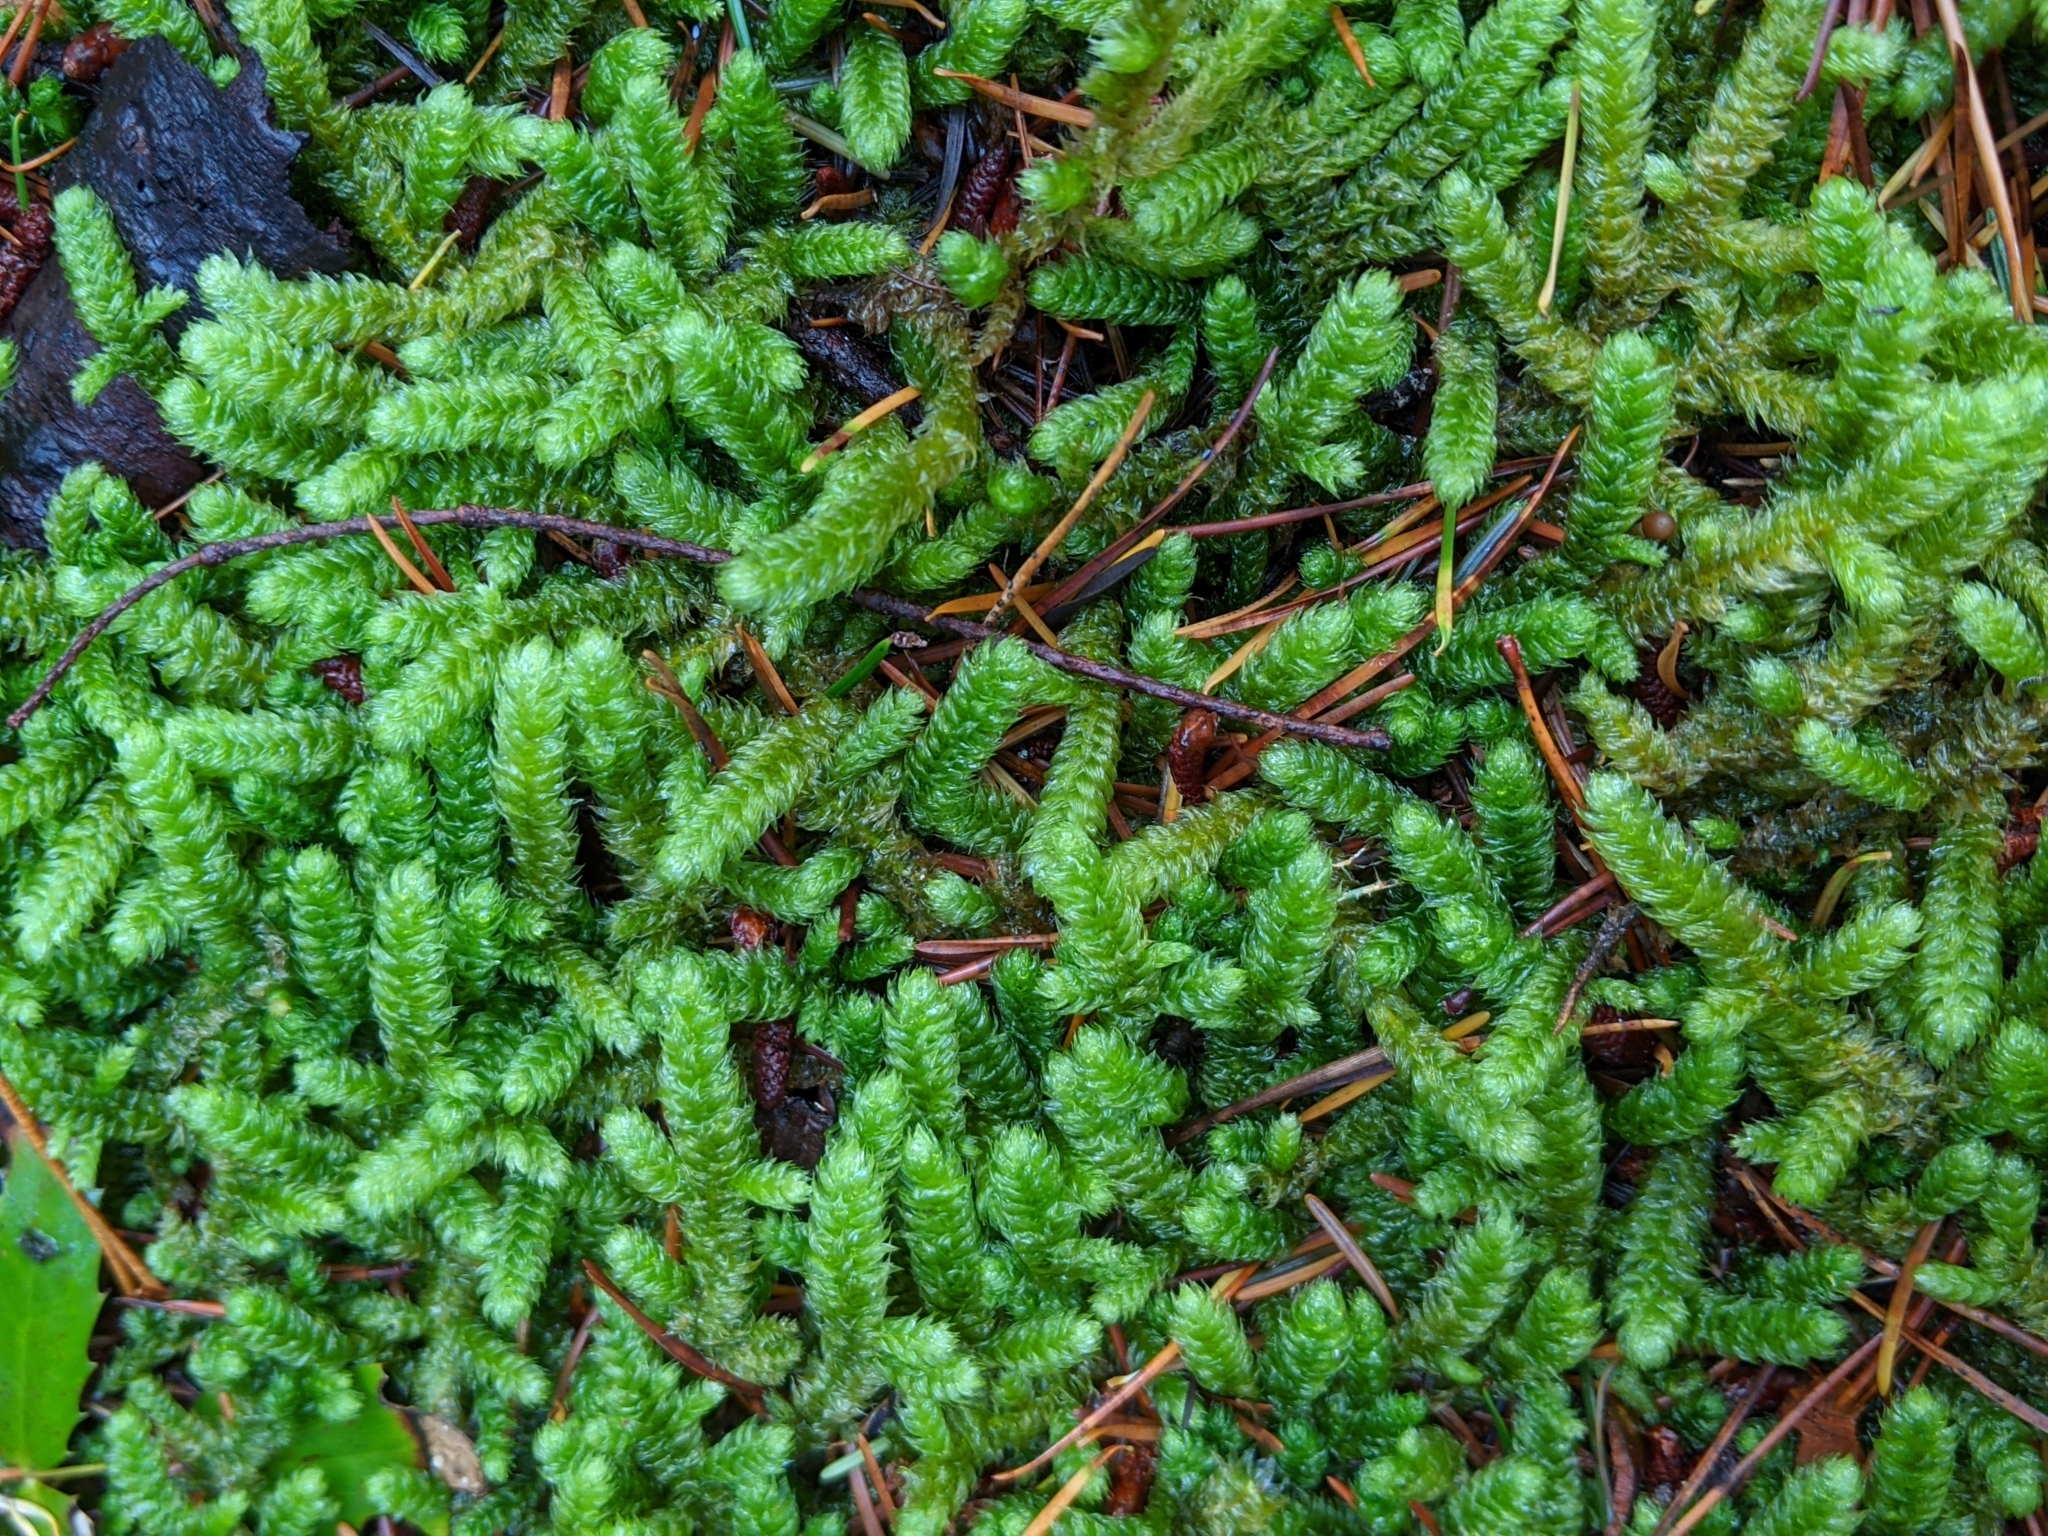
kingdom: Plantae
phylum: Bryophyta
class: Bryopsida
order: Hypnales
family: Hylocomiaceae
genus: Rhytidiopsis
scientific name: Rhytidiopsis robusta
